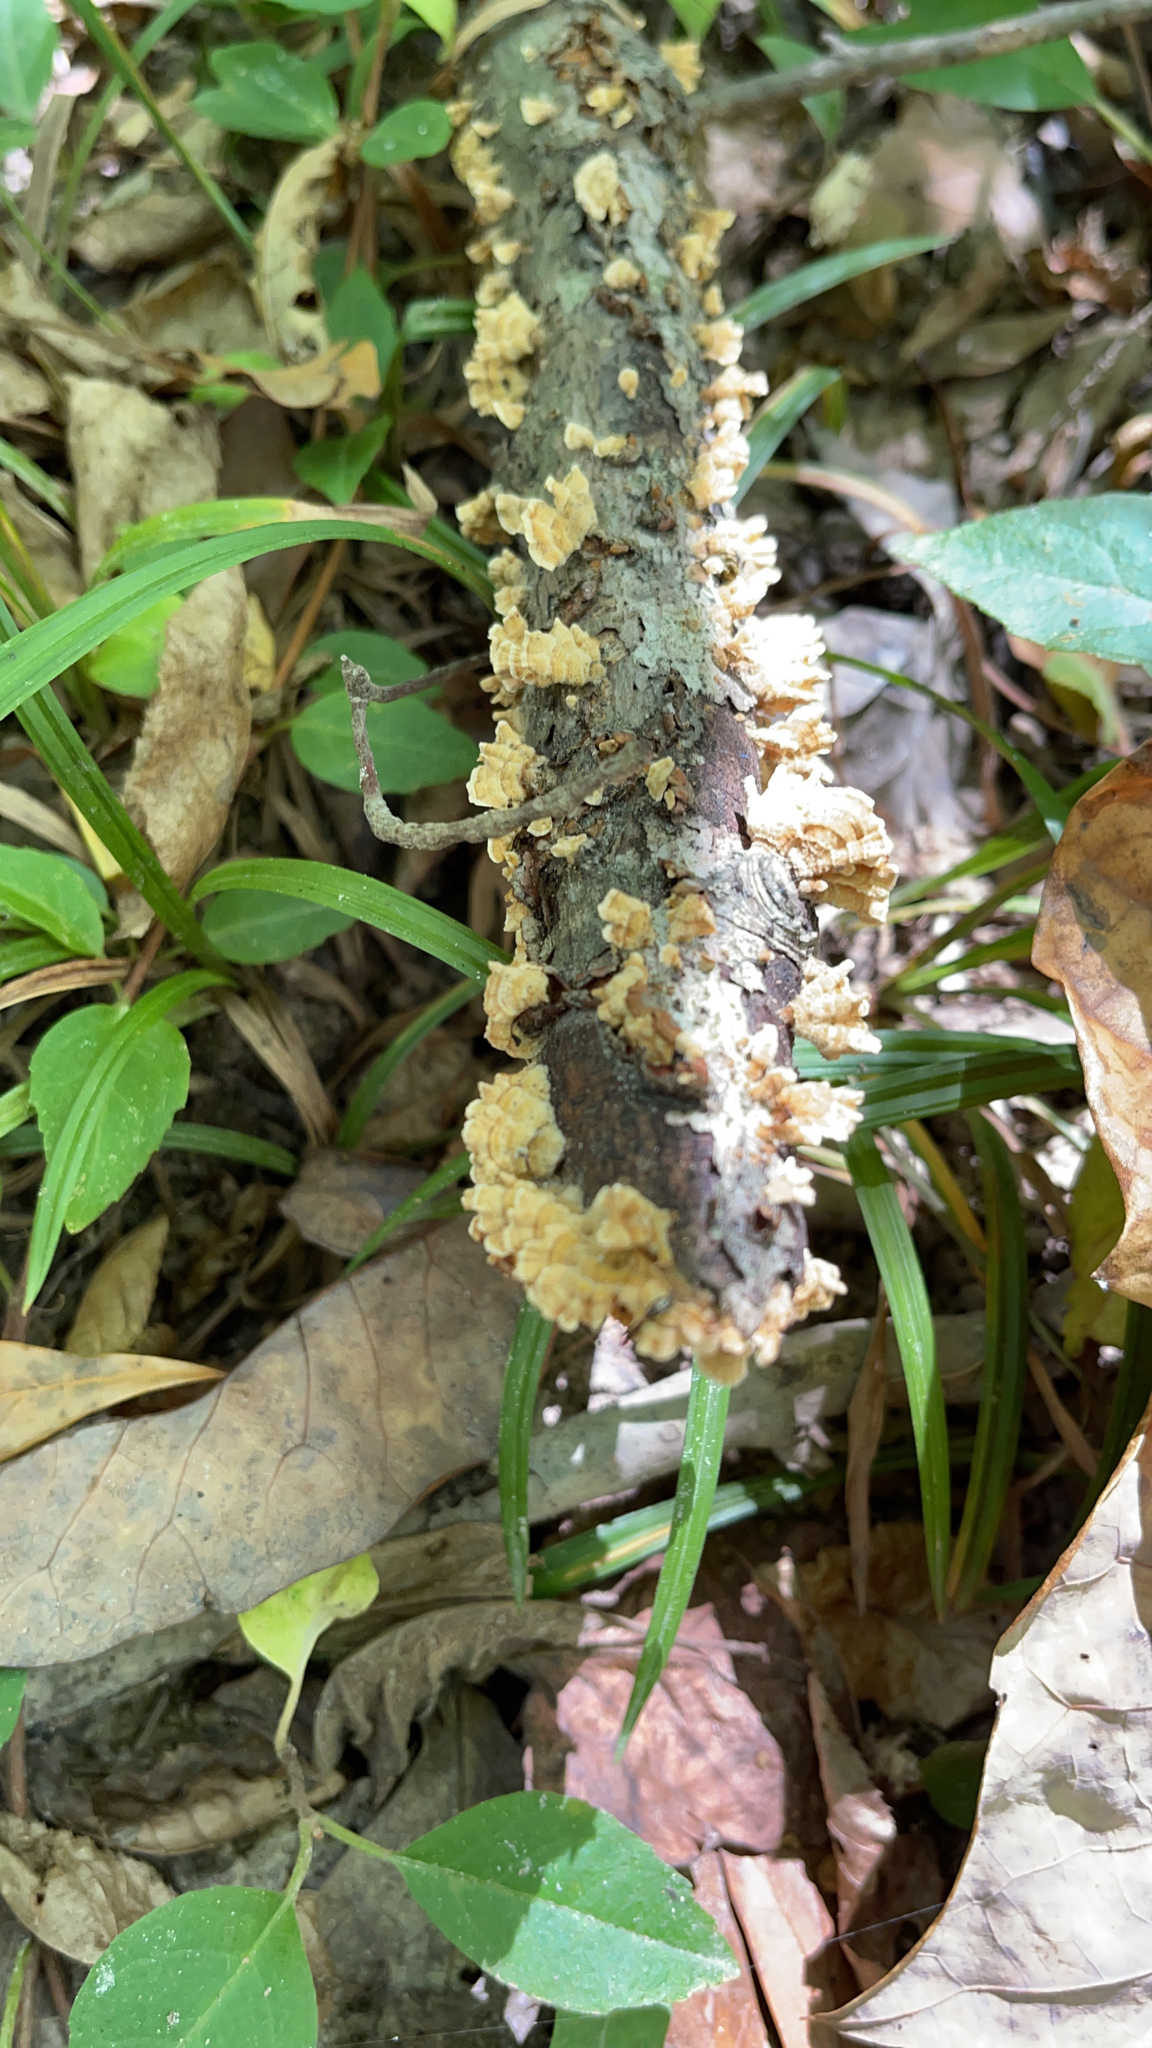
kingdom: Fungi
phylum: Basidiomycota
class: Agaricomycetes
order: Russulales
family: Stereaceae
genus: Stereum
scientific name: Stereum complicatum
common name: Crowded parchment
